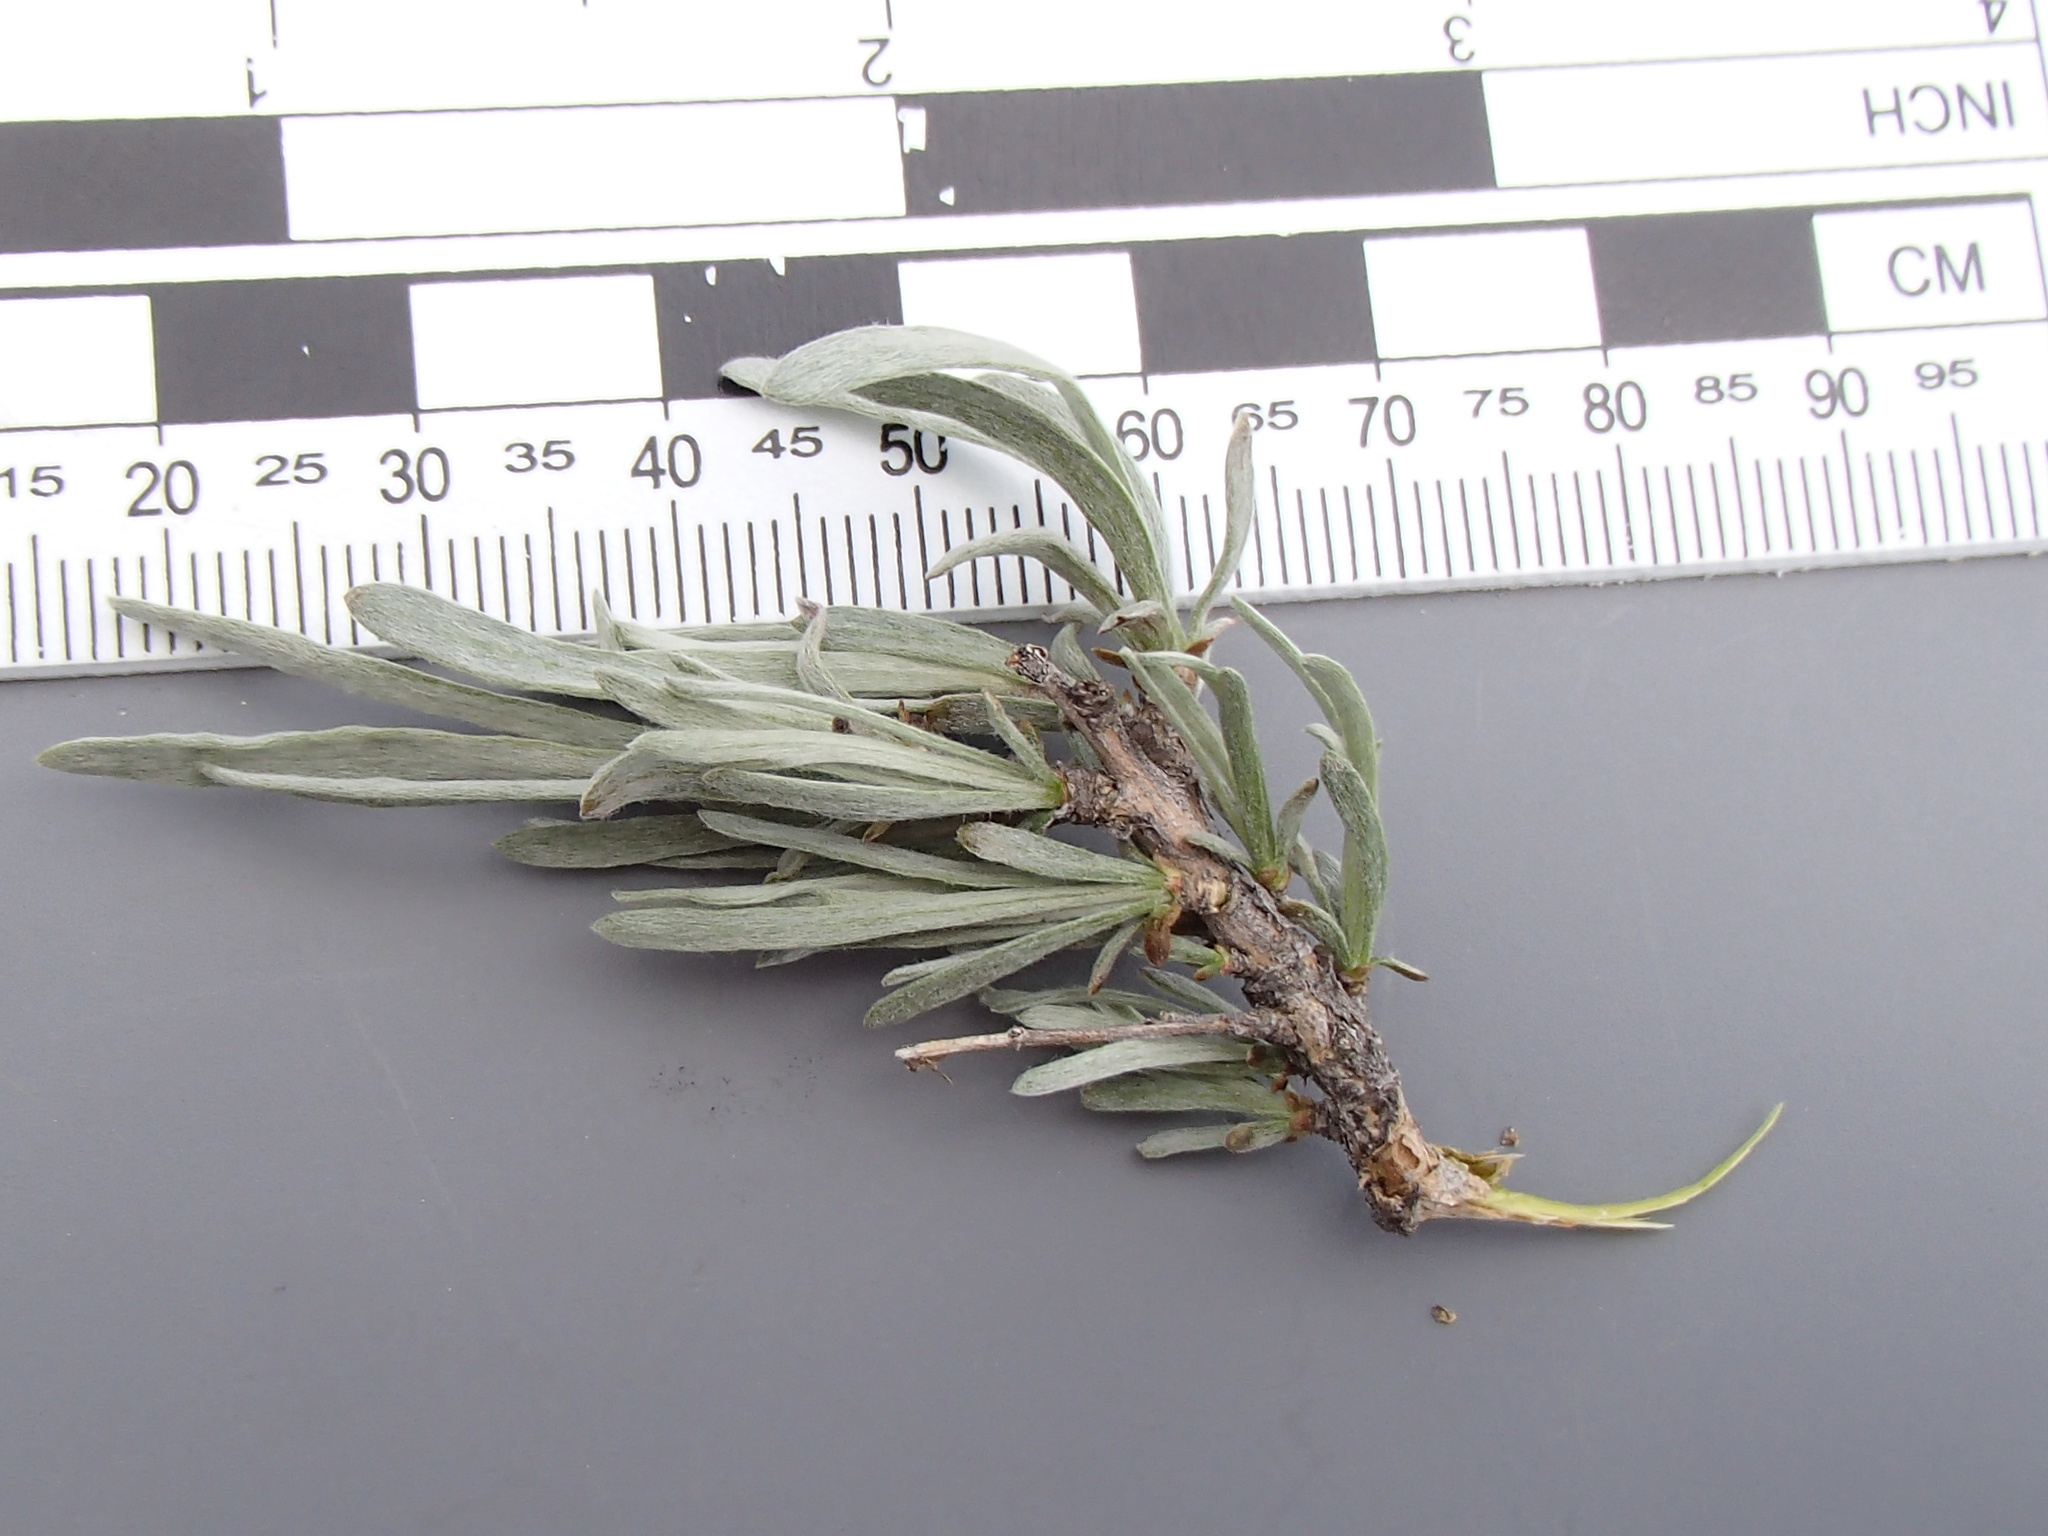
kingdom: Plantae
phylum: Tracheophyta
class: Magnoliopsida
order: Asterales
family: Asteraceae
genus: Artemisia
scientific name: Artemisia rigida
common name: Scabland sagebrush
